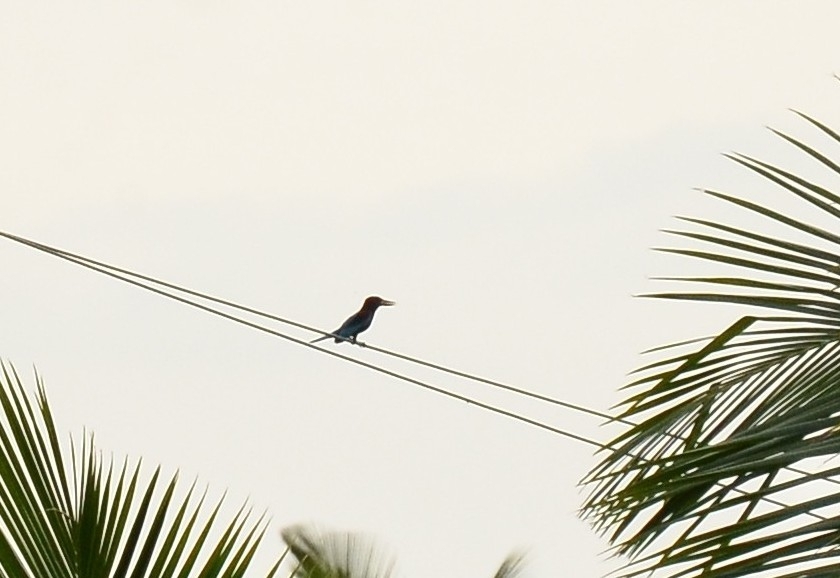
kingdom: Animalia
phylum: Chordata
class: Aves
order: Coraciiformes
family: Alcedinidae
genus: Halcyon
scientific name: Halcyon smyrnensis
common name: White-throated kingfisher
